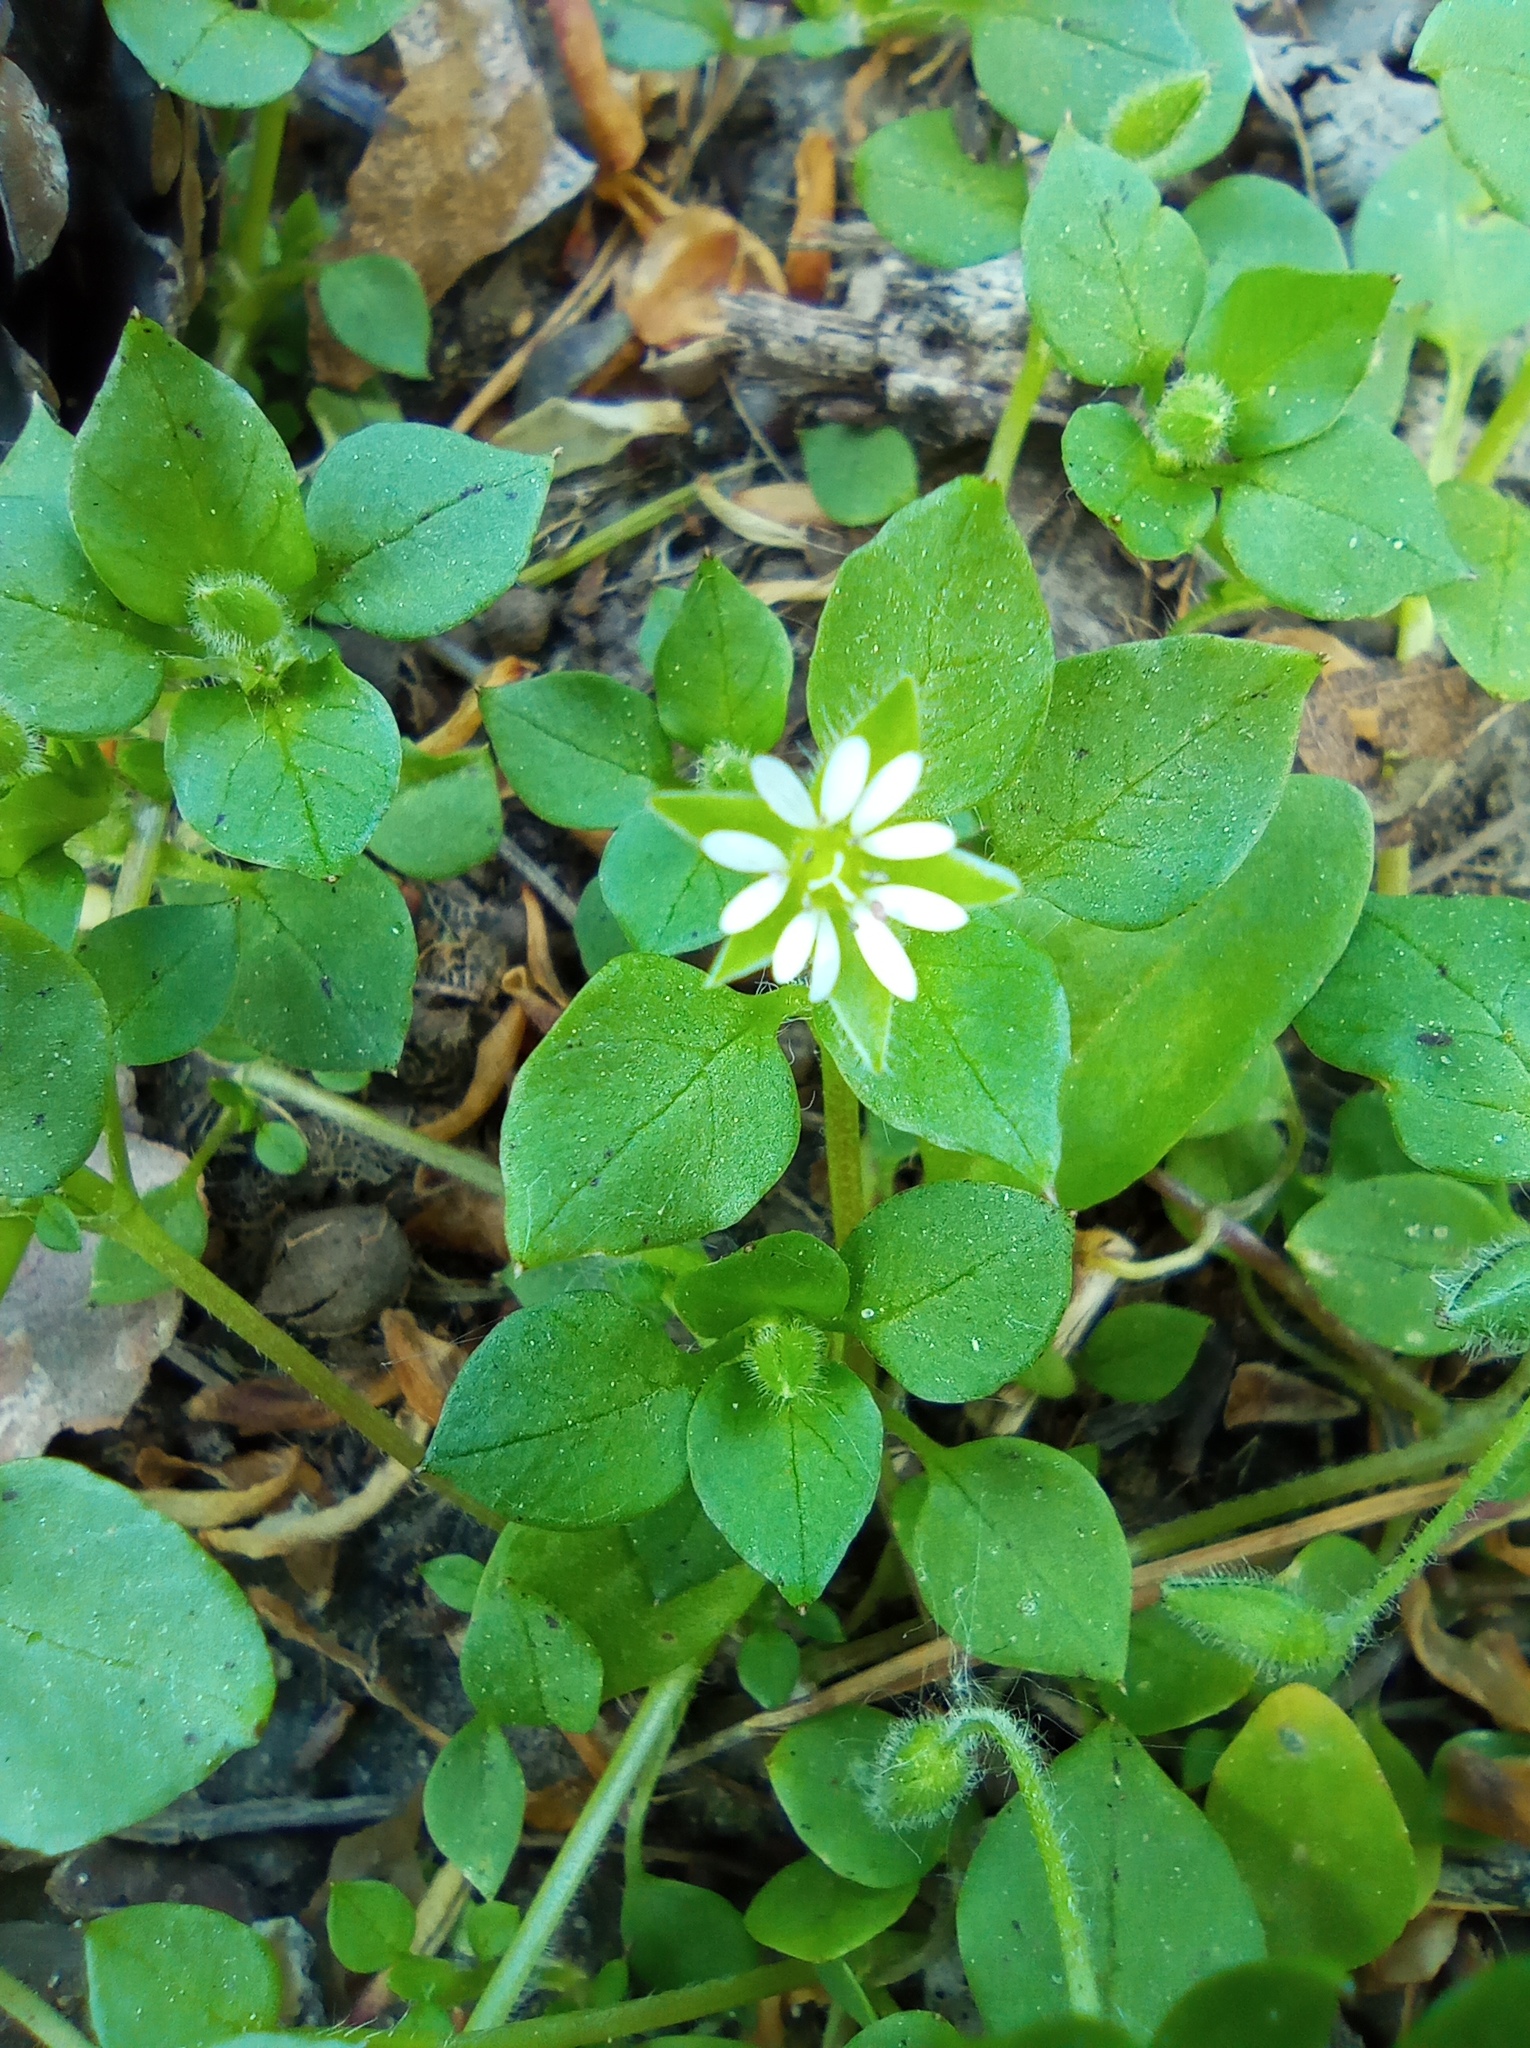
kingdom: Plantae
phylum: Tracheophyta
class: Magnoliopsida
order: Caryophyllales
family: Caryophyllaceae
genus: Stellaria
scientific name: Stellaria media
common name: Common chickweed
